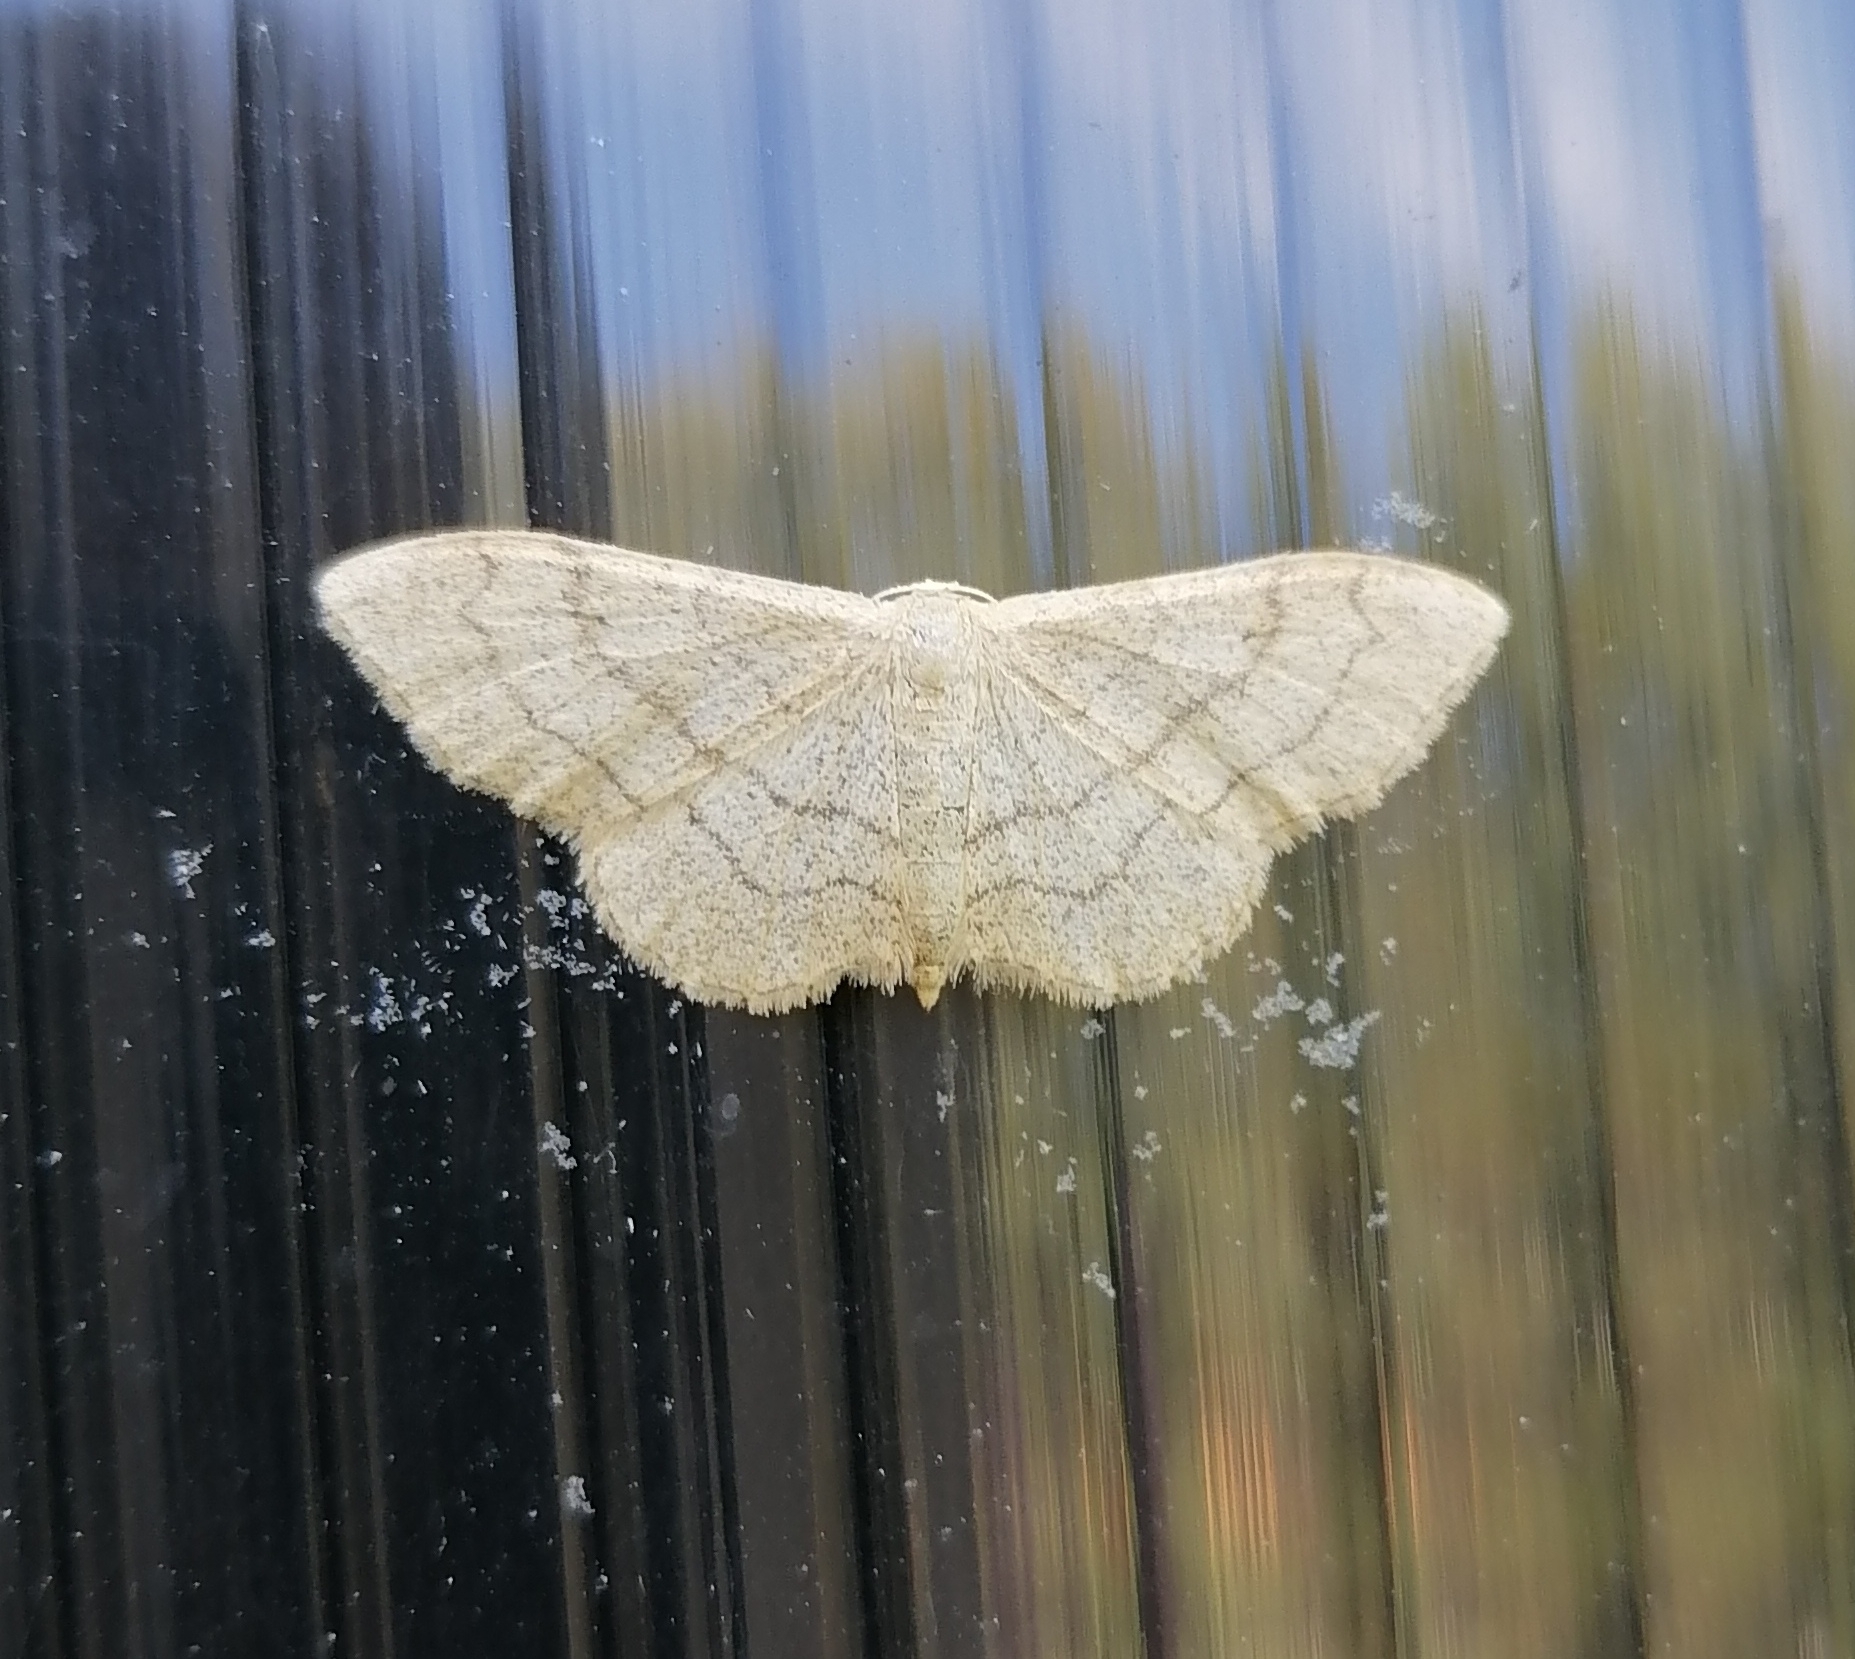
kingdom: Animalia
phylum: Arthropoda
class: Insecta
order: Lepidoptera
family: Geometridae
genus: Idaea
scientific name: Idaea aversata
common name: Riband wave
